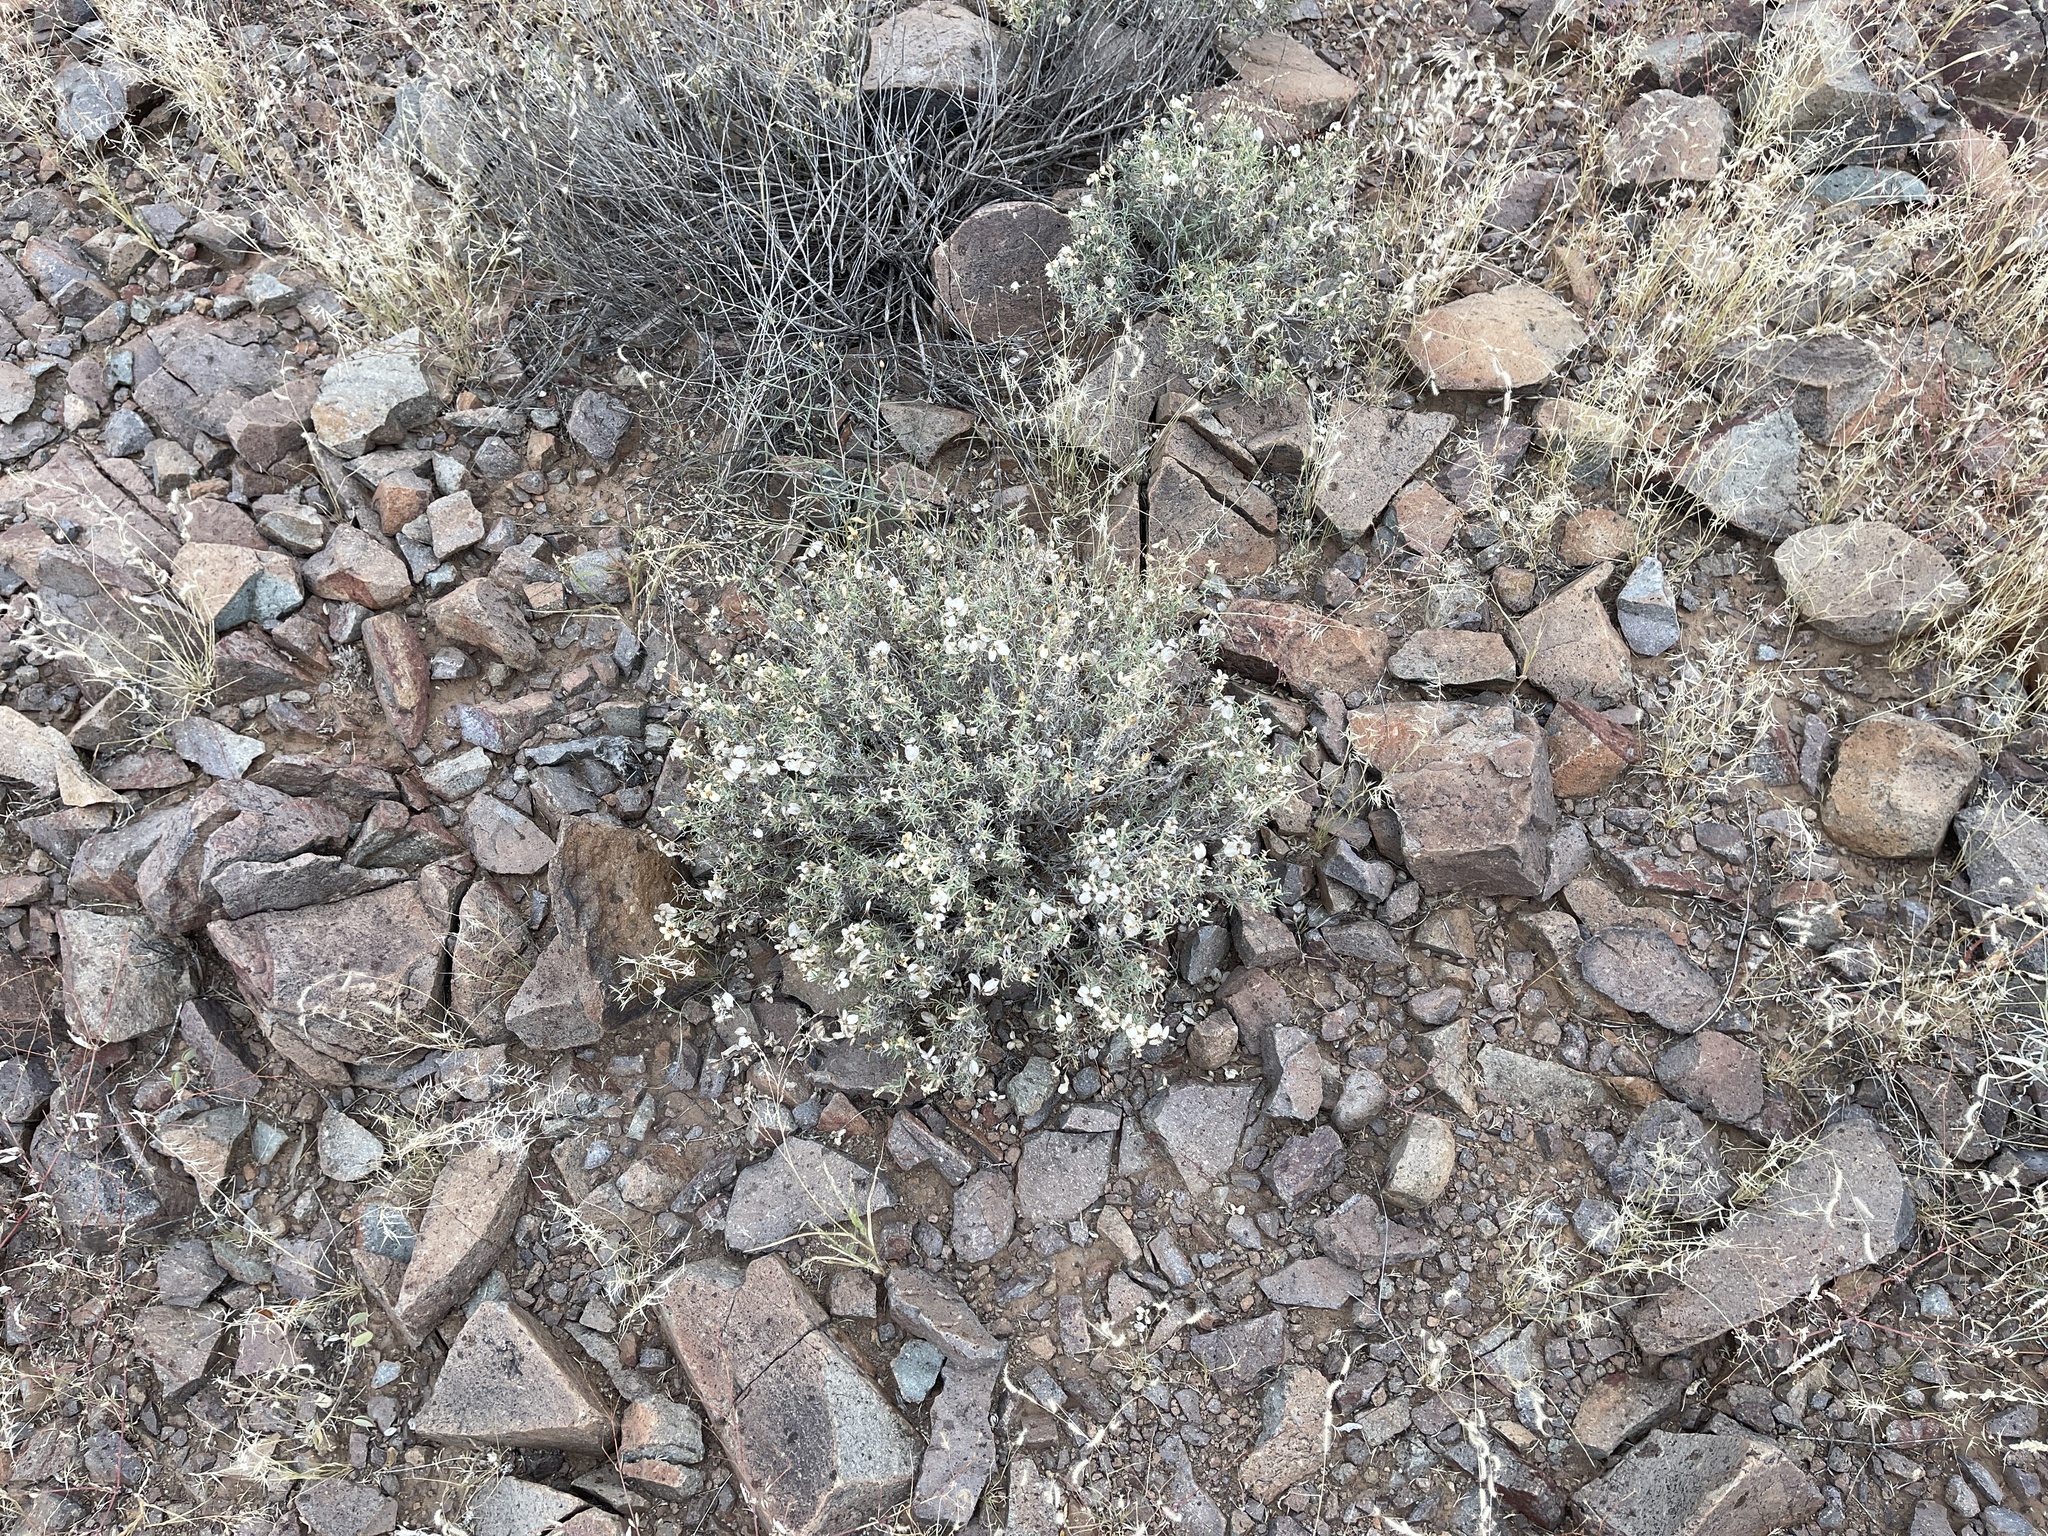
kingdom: Plantae
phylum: Tracheophyta
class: Magnoliopsida
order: Asterales
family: Asteraceae
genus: Zinnia
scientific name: Zinnia acerosa
